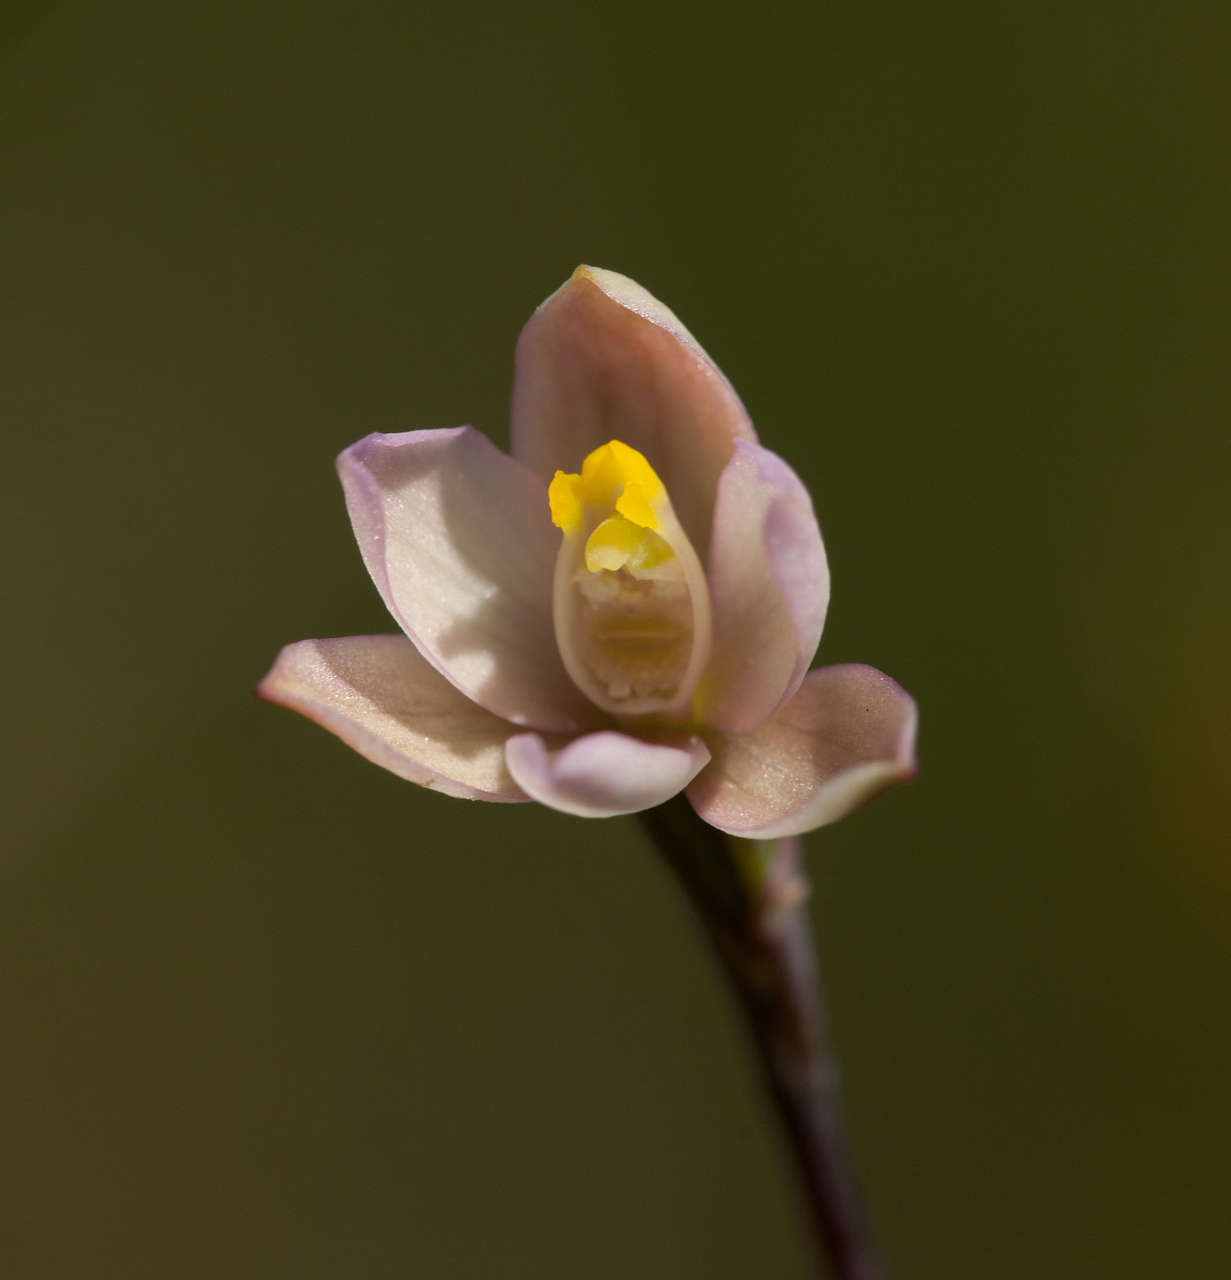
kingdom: Plantae
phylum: Tracheophyta
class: Liliopsida
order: Asparagales
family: Orchidaceae
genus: Thelymitra
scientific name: Thelymitra carnea
